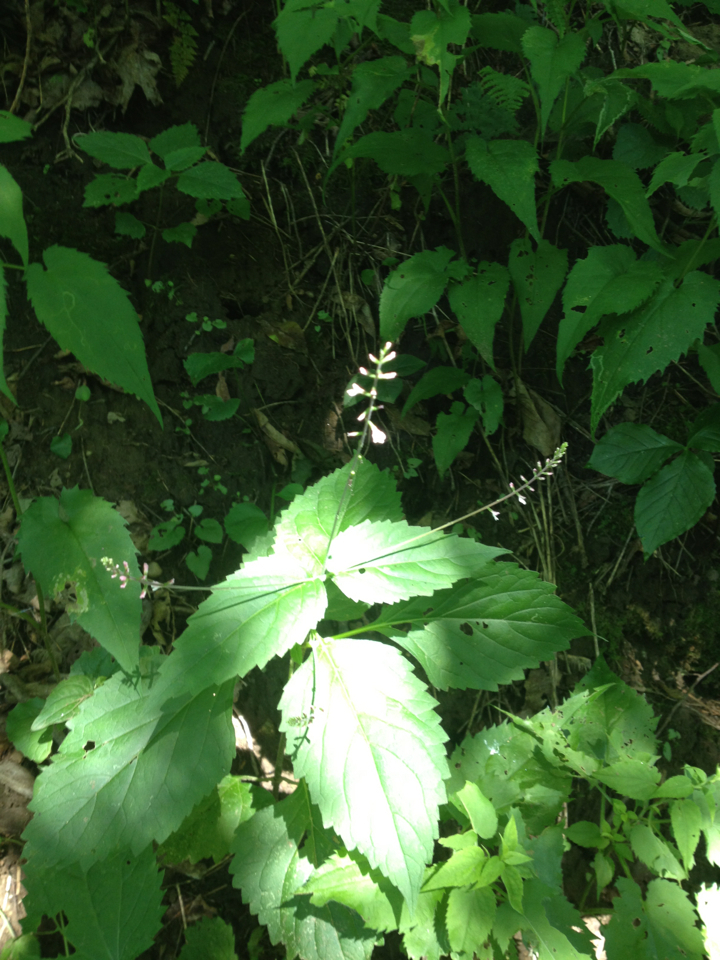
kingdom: Plantae
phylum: Tracheophyta
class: Magnoliopsida
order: Lamiales
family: Phrymaceae
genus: Phryma
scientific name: Phryma leptostachya
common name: American lopseed
